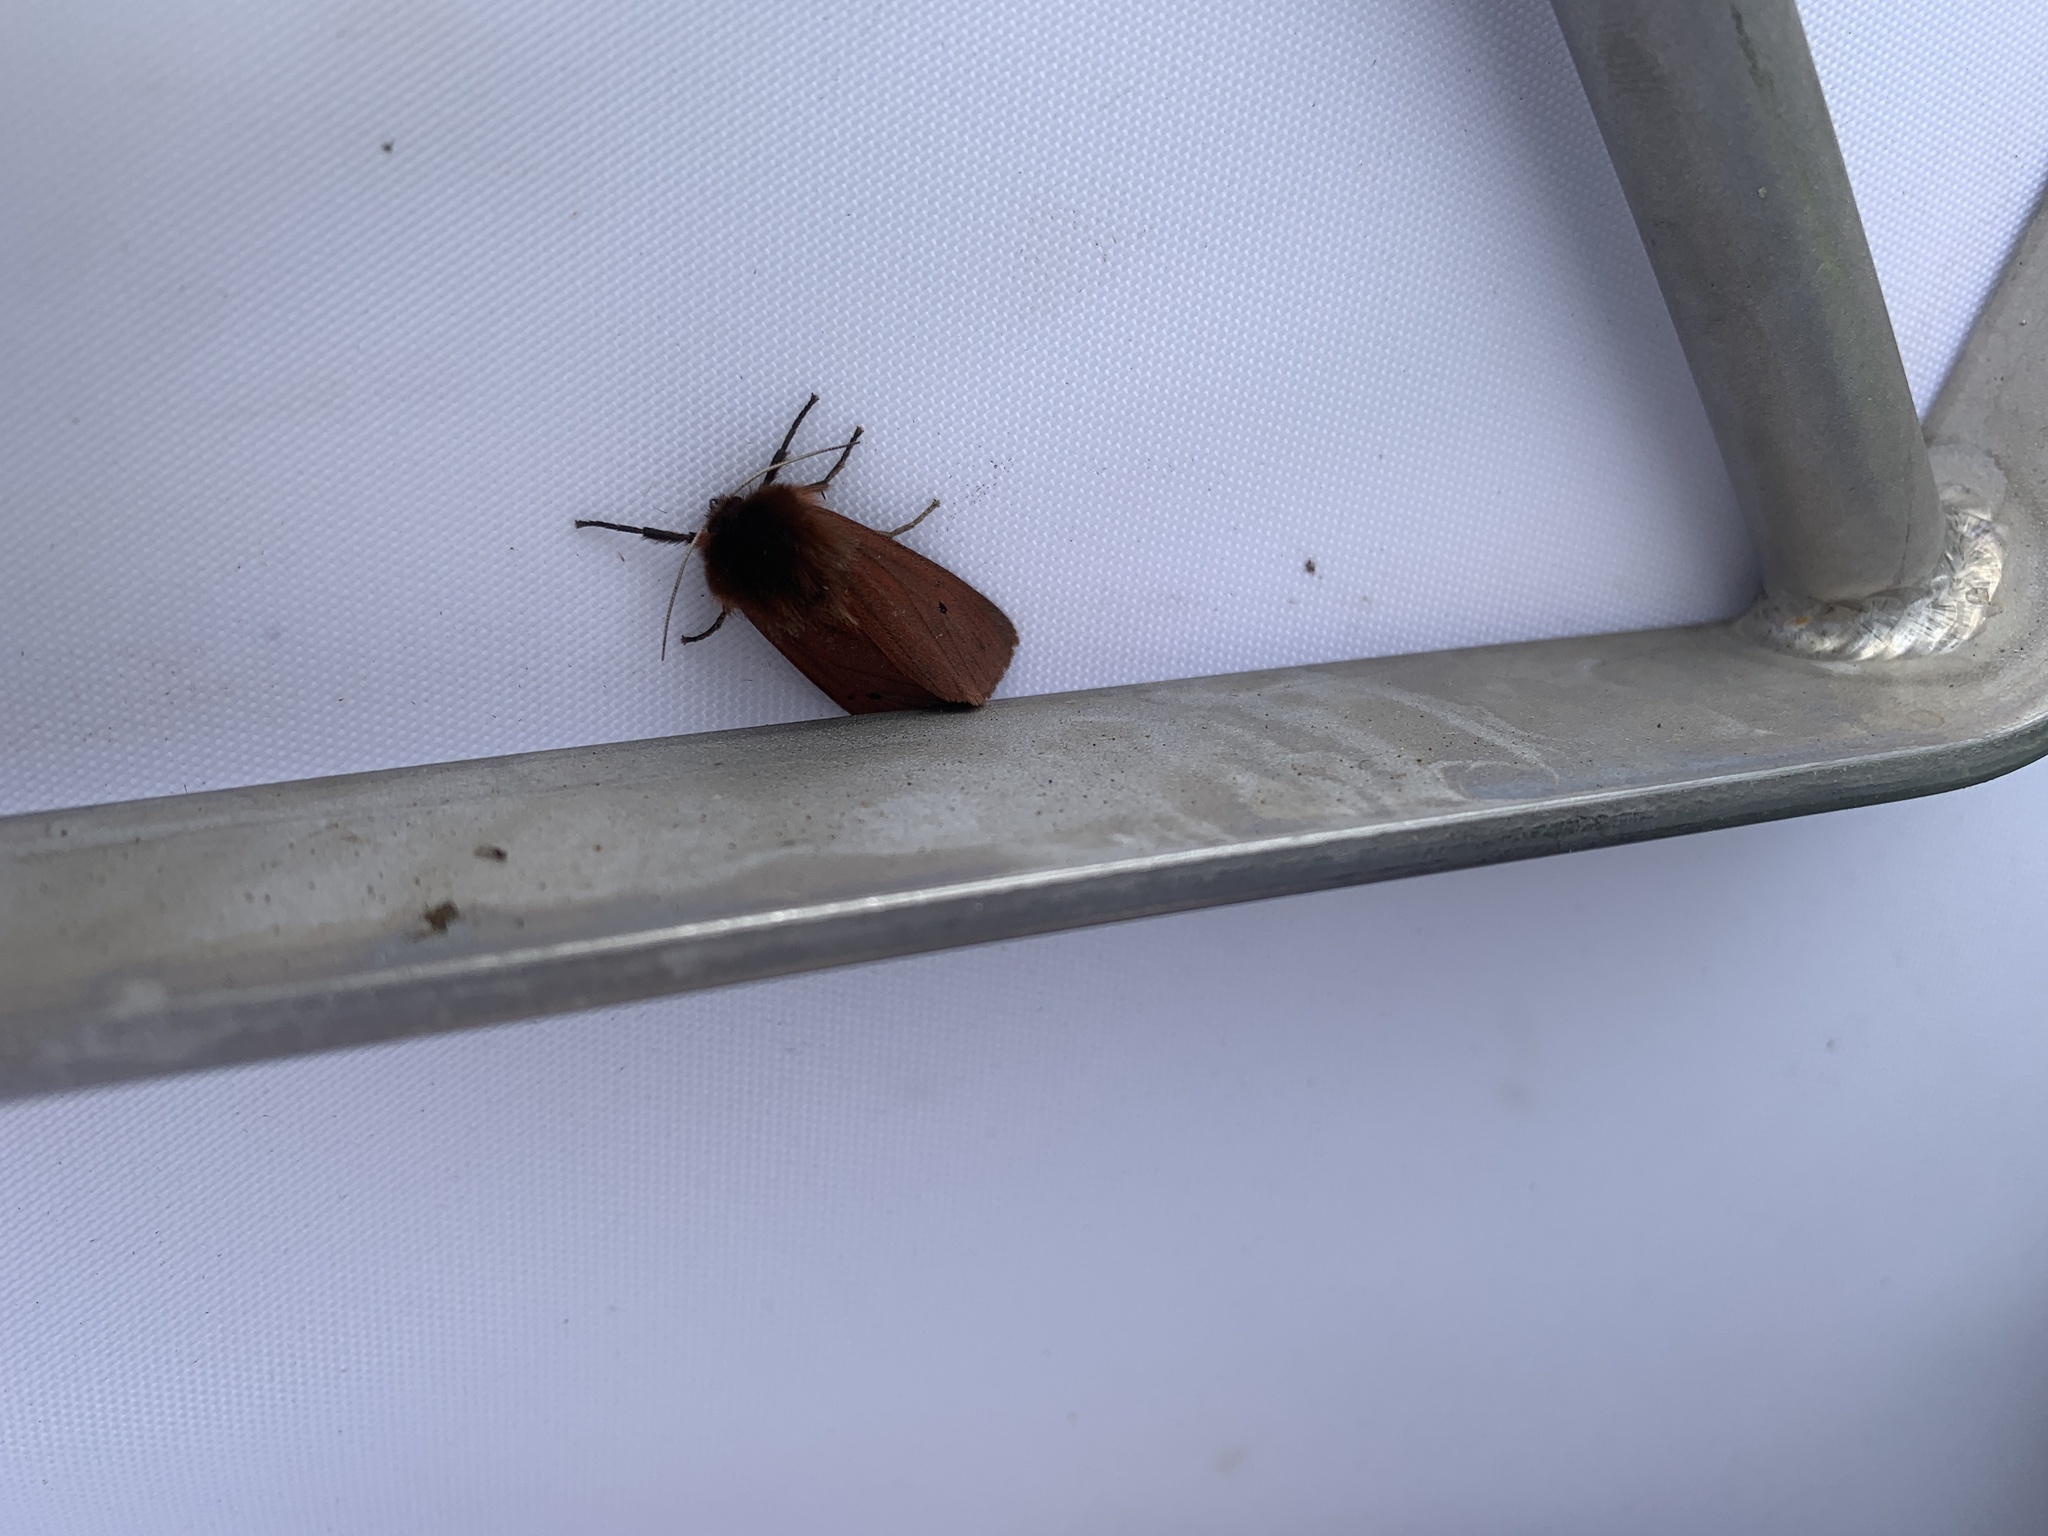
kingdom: Animalia
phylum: Arthropoda
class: Insecta
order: Lepidoptera
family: Erebidae
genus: Phragmatobia
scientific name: Phragmatobia fuliginosa
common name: Ruby tiger
